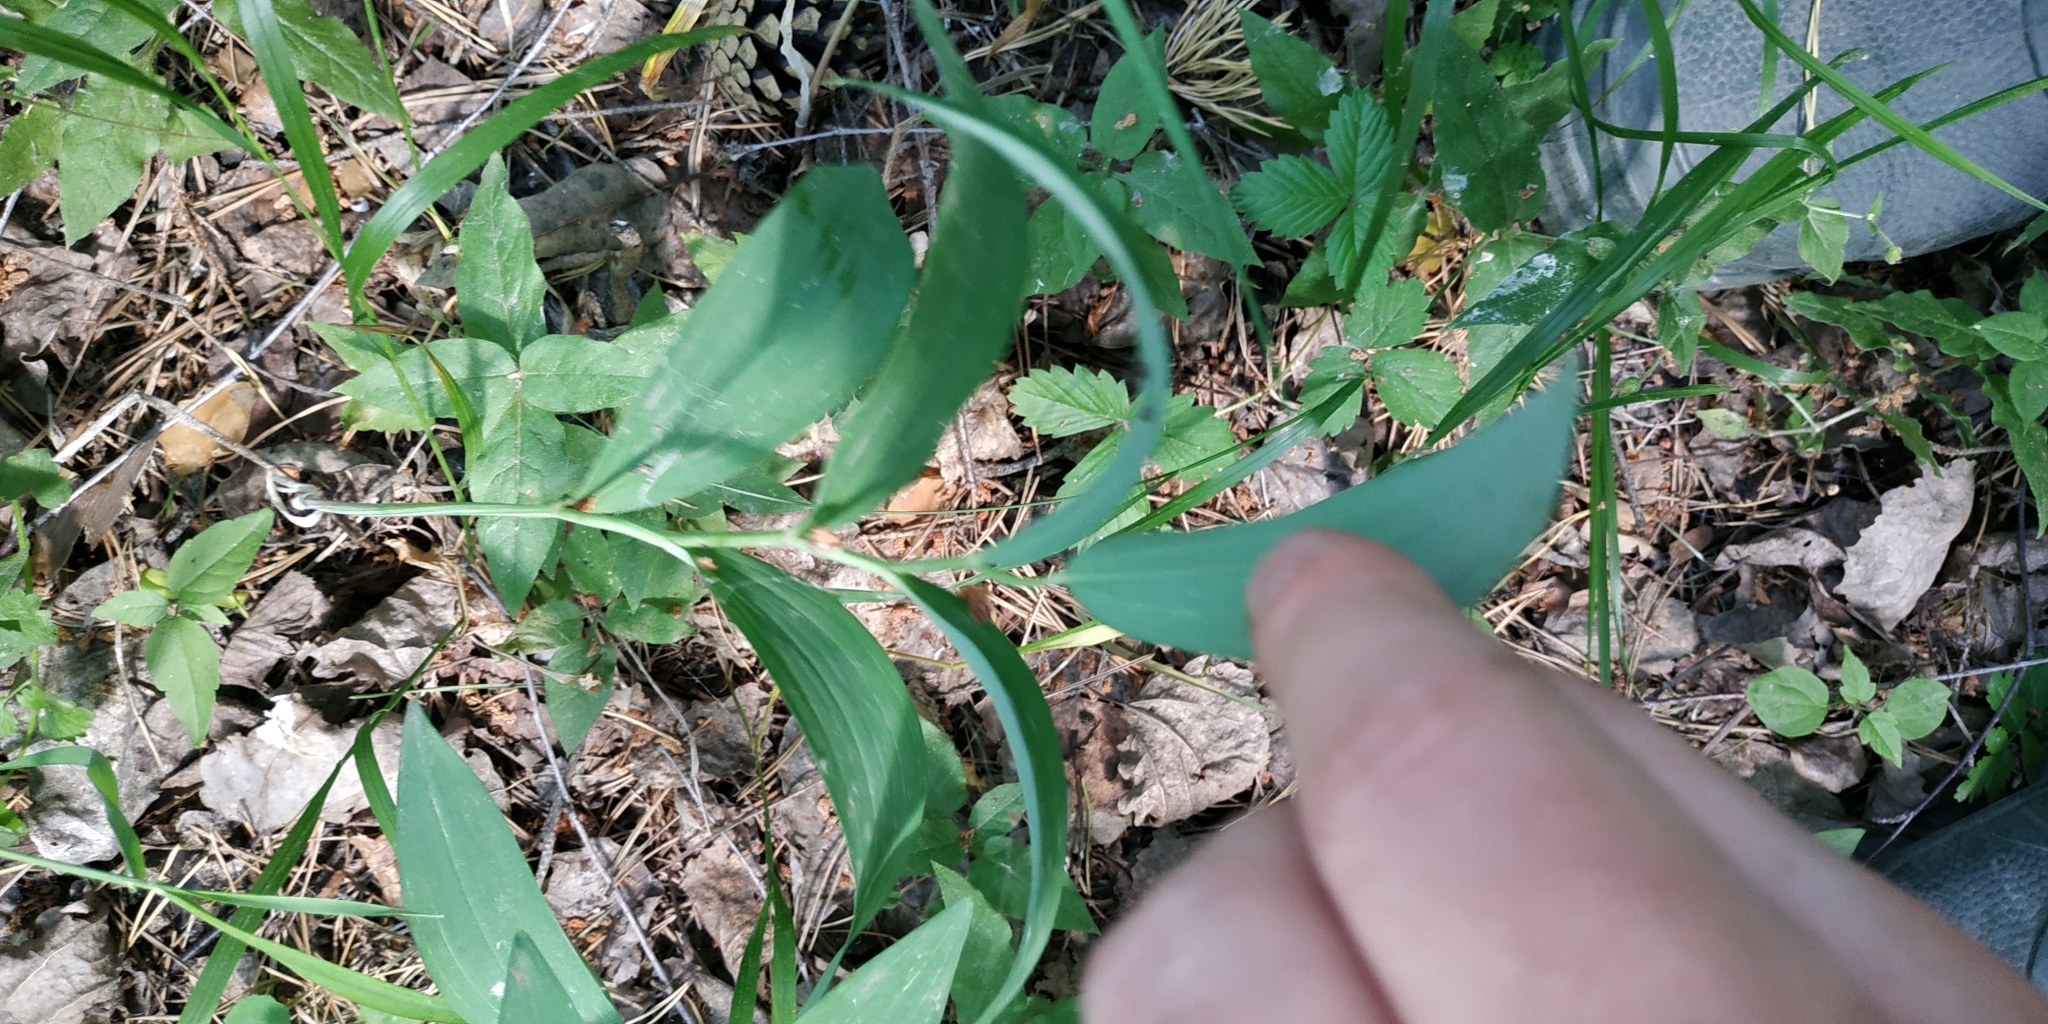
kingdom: Plantae
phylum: Tracheophyta
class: Liliopsida
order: Asparagales
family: Asparagaceae
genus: Polygonatum
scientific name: Polygonatum odoratum
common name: Angular solomon's-seal
